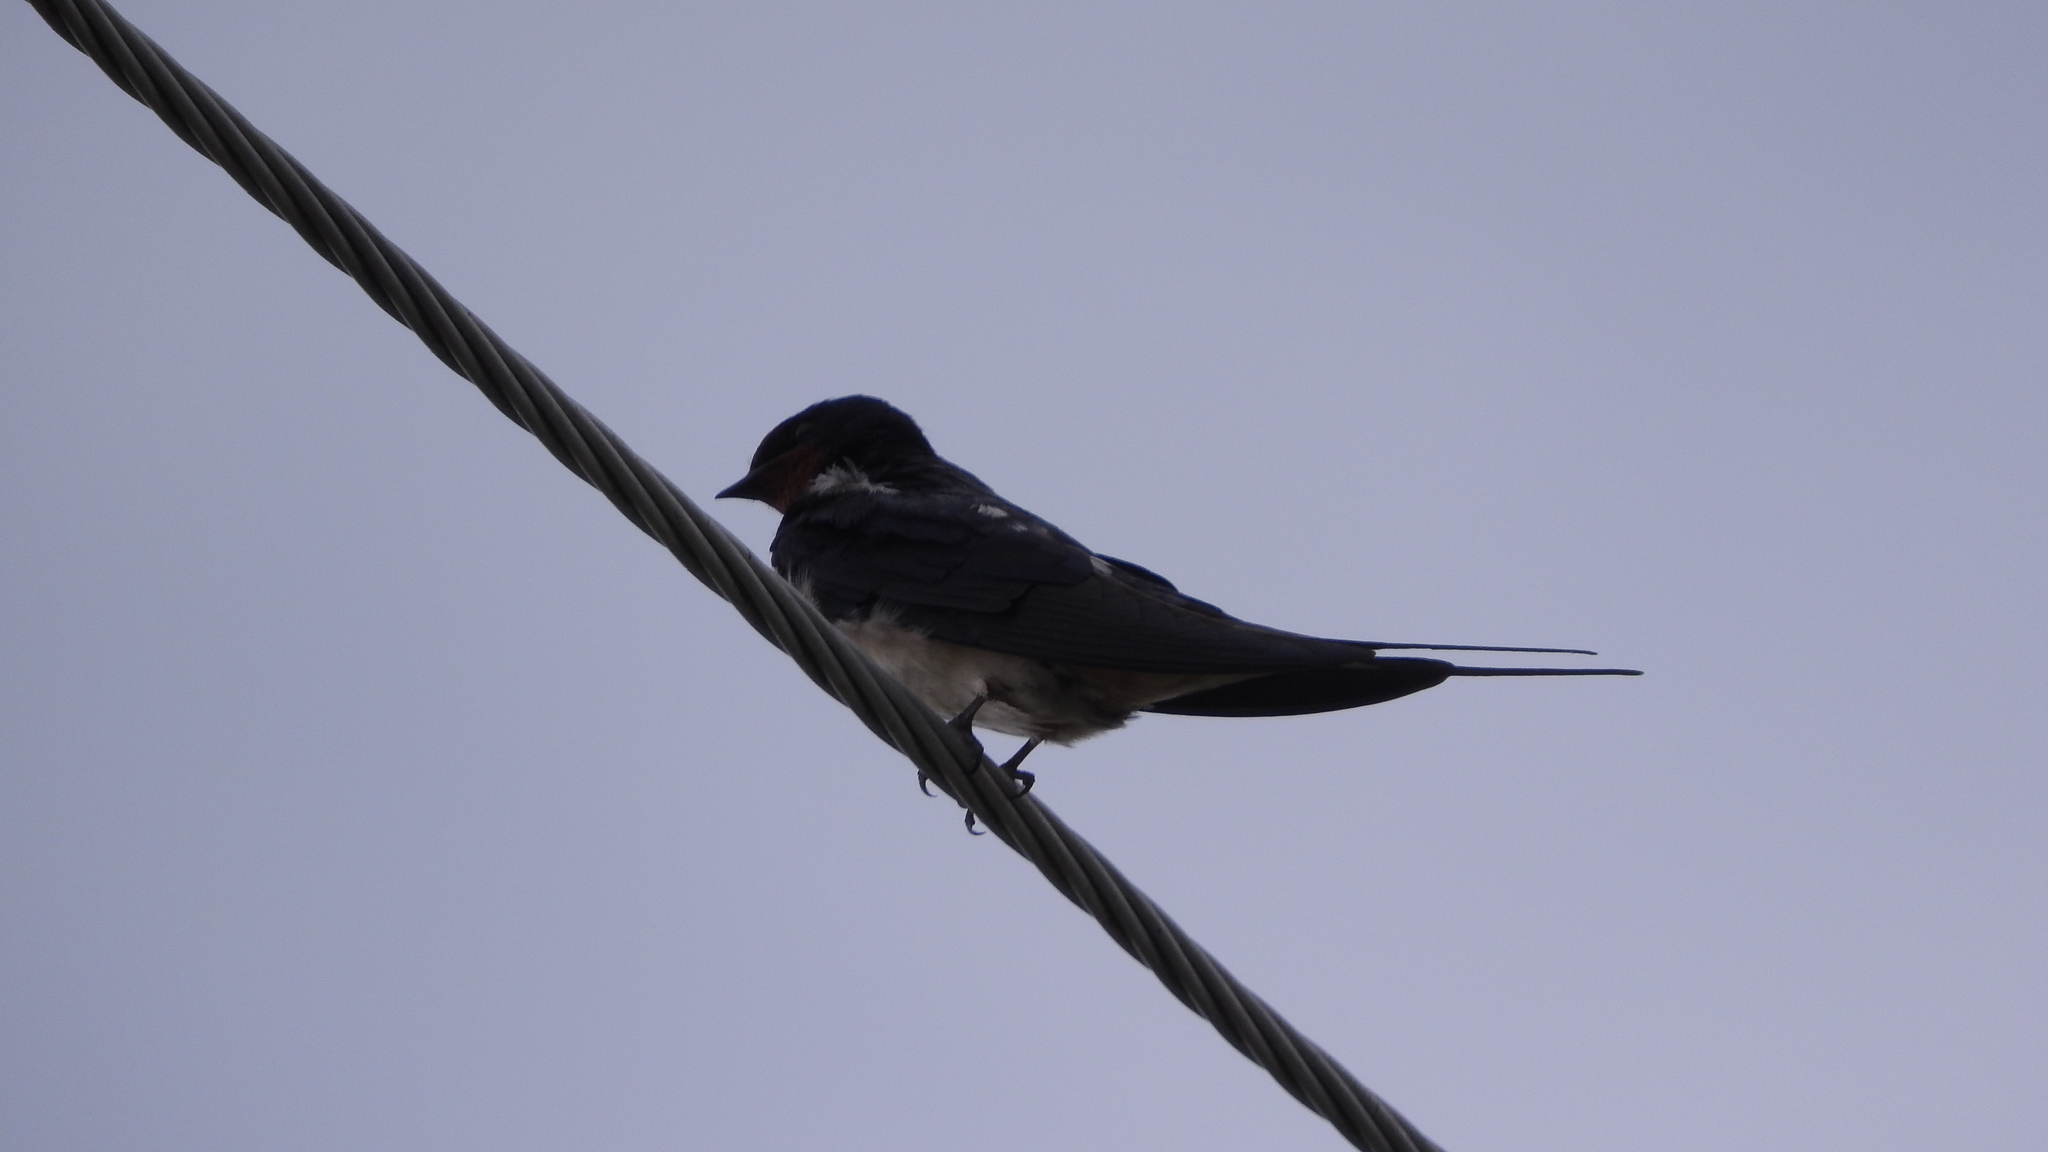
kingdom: Animalia
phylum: Chordata
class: Aves
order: Passeriformes
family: Hirundinidae
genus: Hirundo
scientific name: Hirundo rustica
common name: Barn swallow
